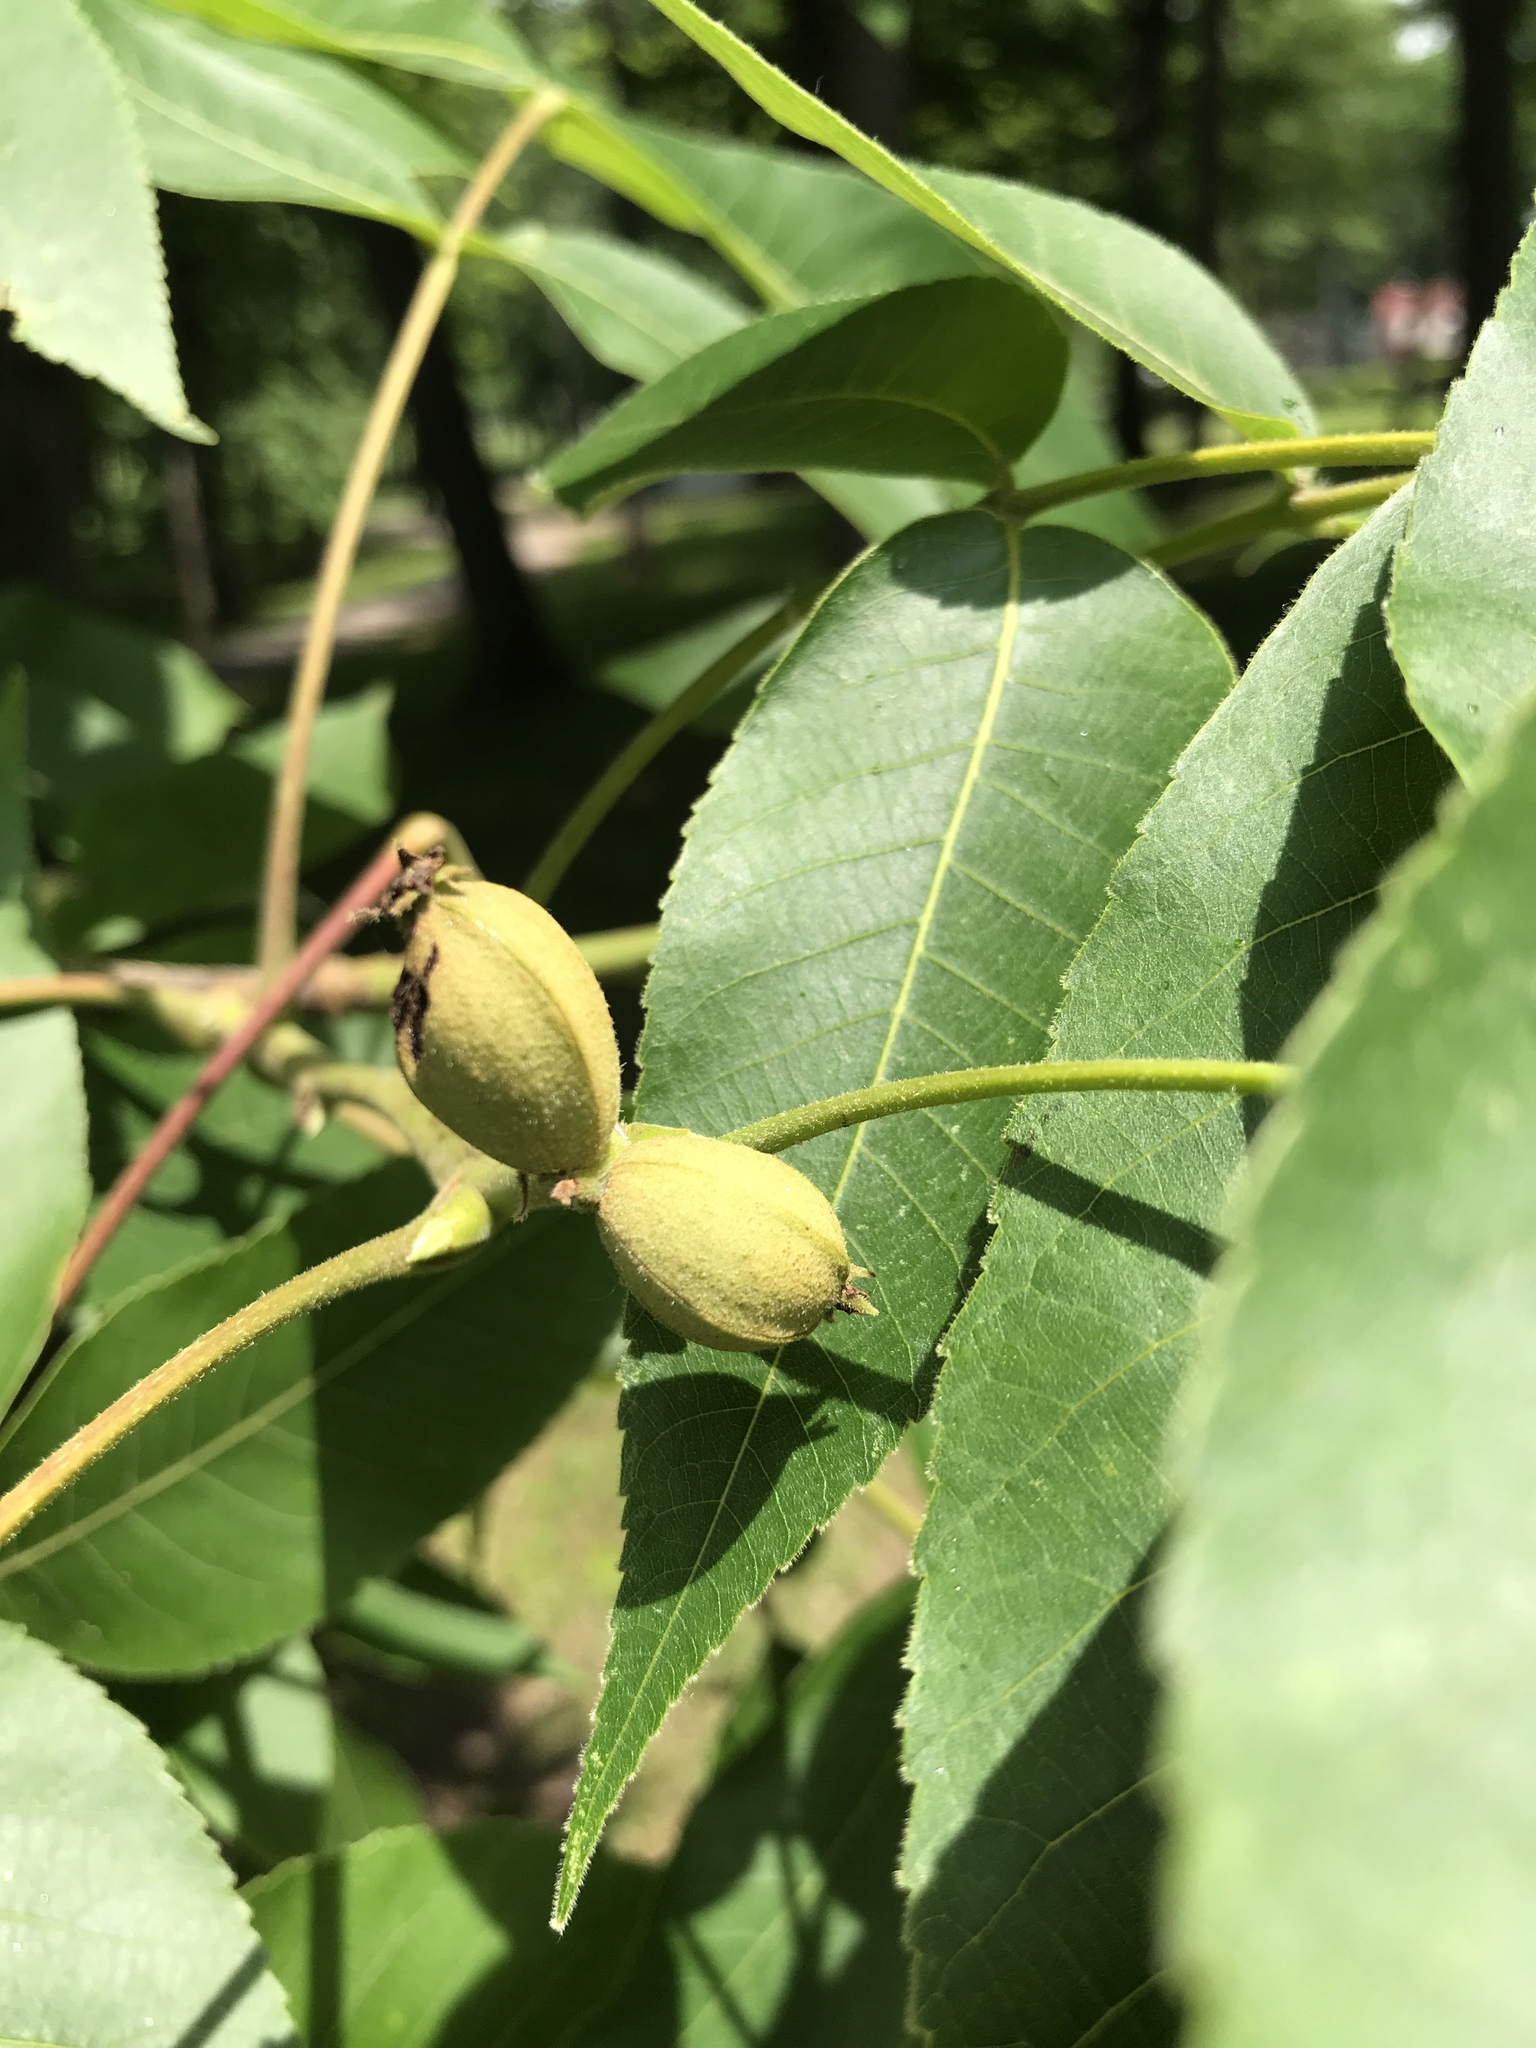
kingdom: Plantae
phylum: Tracheophyta
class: Magnoliopsida
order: Fagales
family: Juglandaceae
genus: Carya
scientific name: Carya ovata
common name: Shagbark hickory
